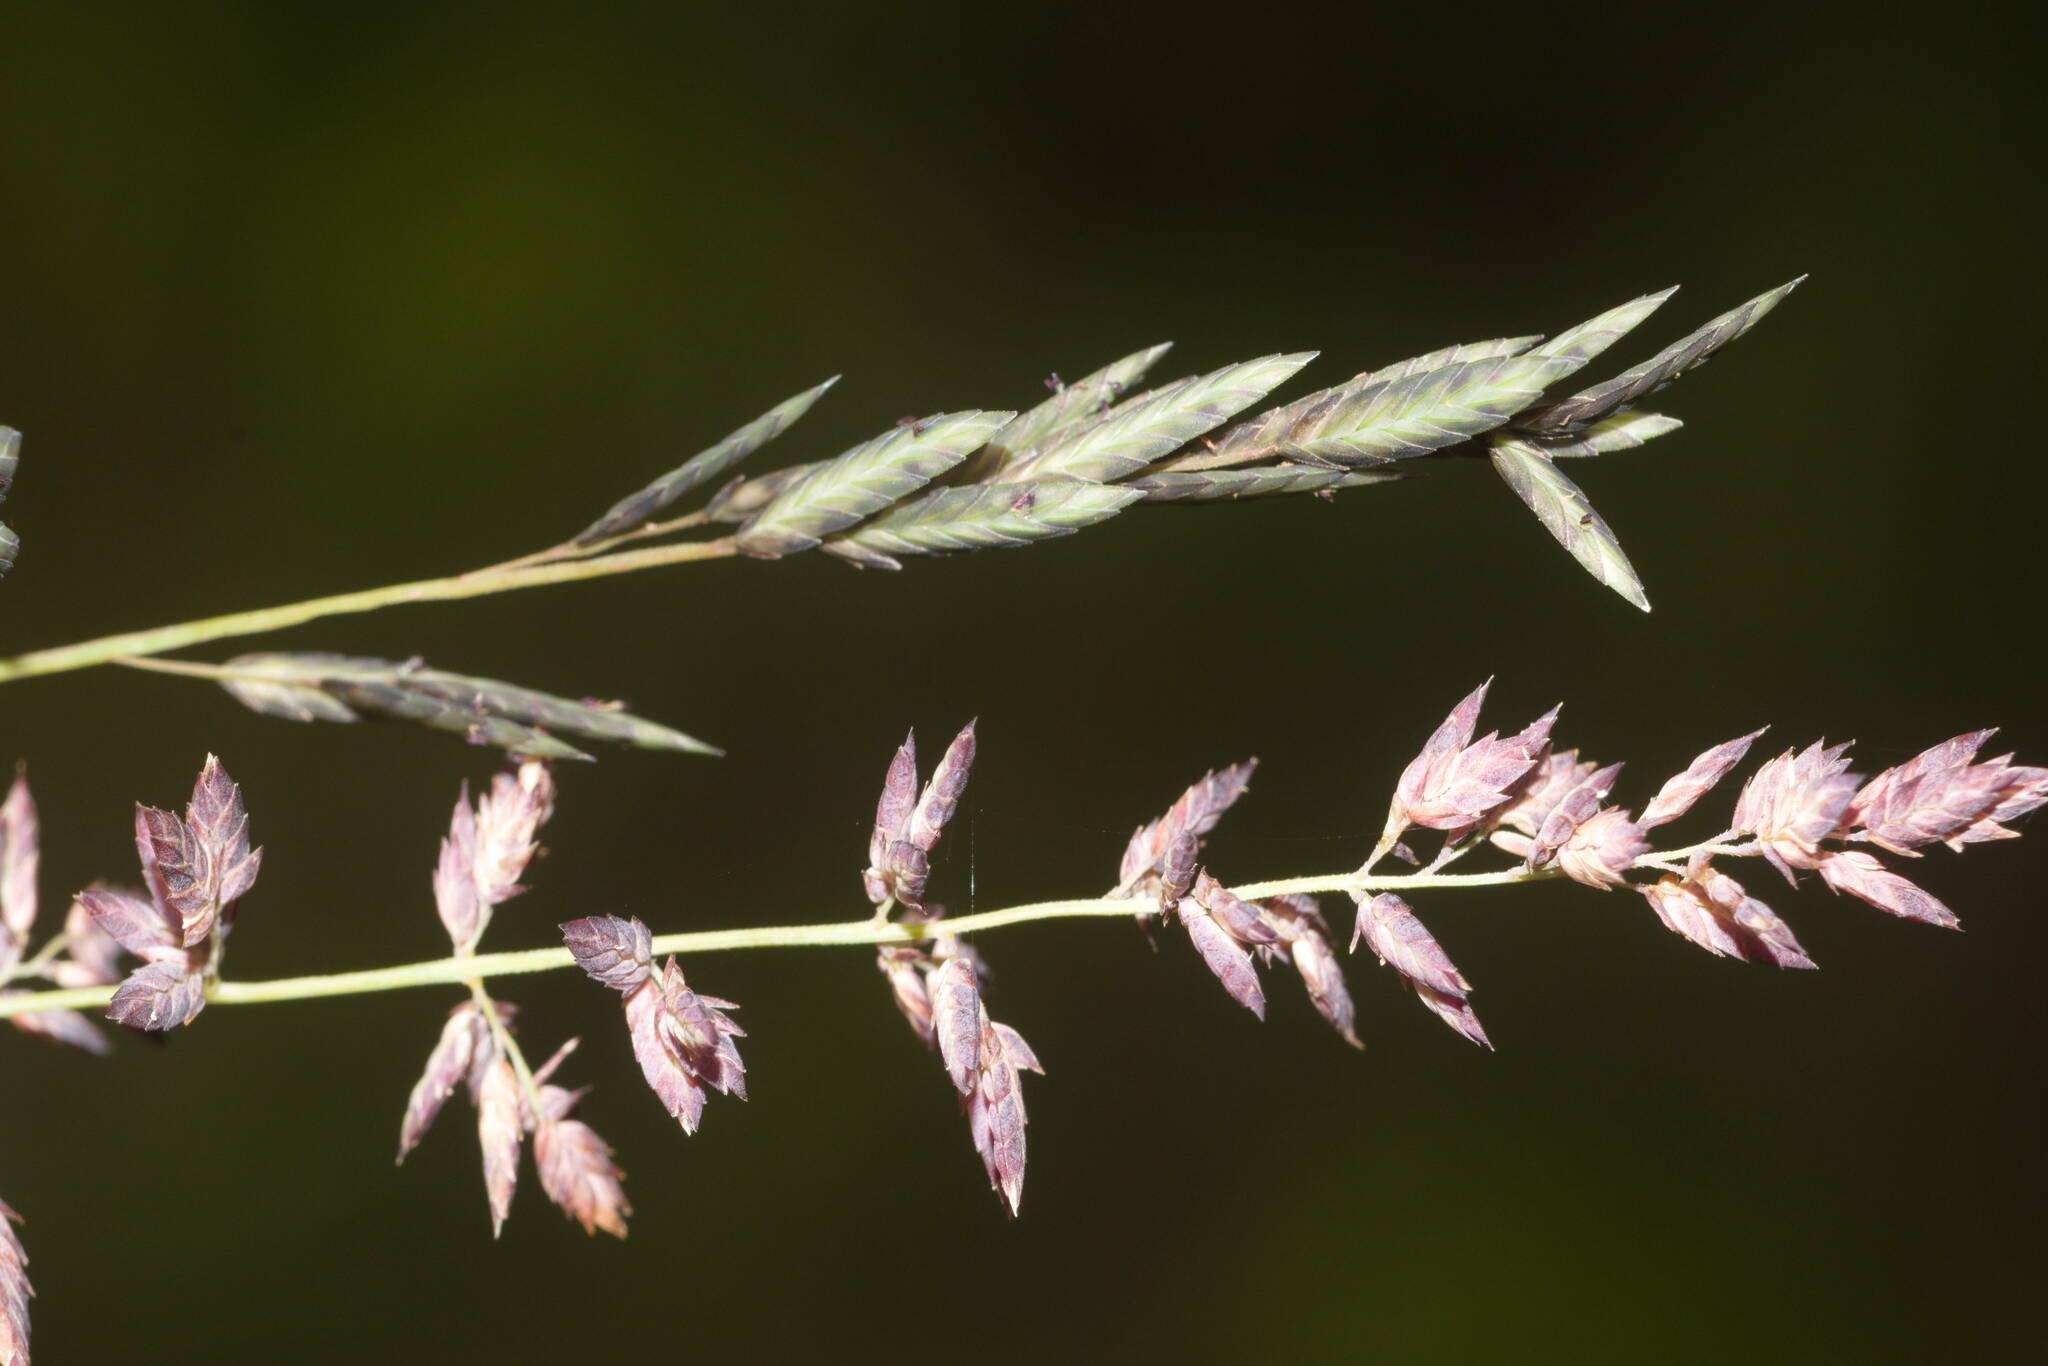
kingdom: Plantae
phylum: Tracheophyta
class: Liliopsida
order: Poales
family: Poaceae
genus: Eragrostis
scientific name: Eragrostis elongata
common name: Long lovegrass
